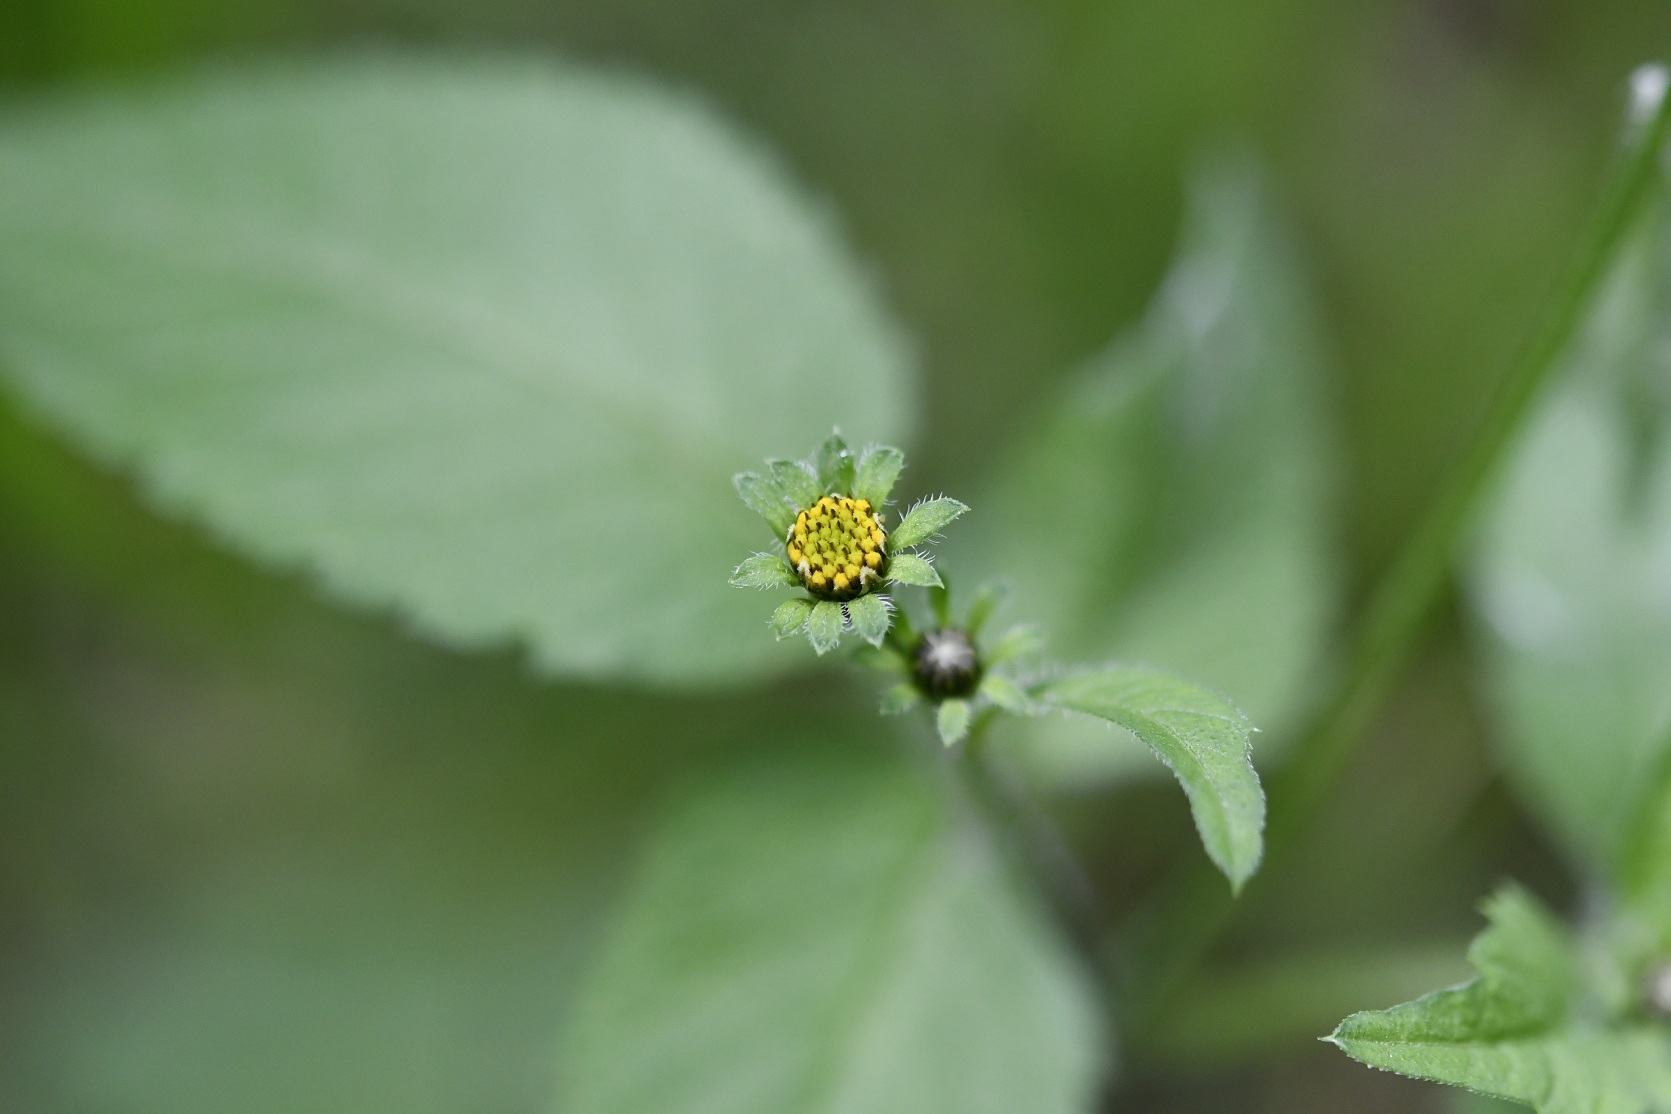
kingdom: Plantae
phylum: Tracheophyta
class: Magnoliopsida
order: Asterales
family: Asteraceae
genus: Bidens
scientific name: Bidens alba
